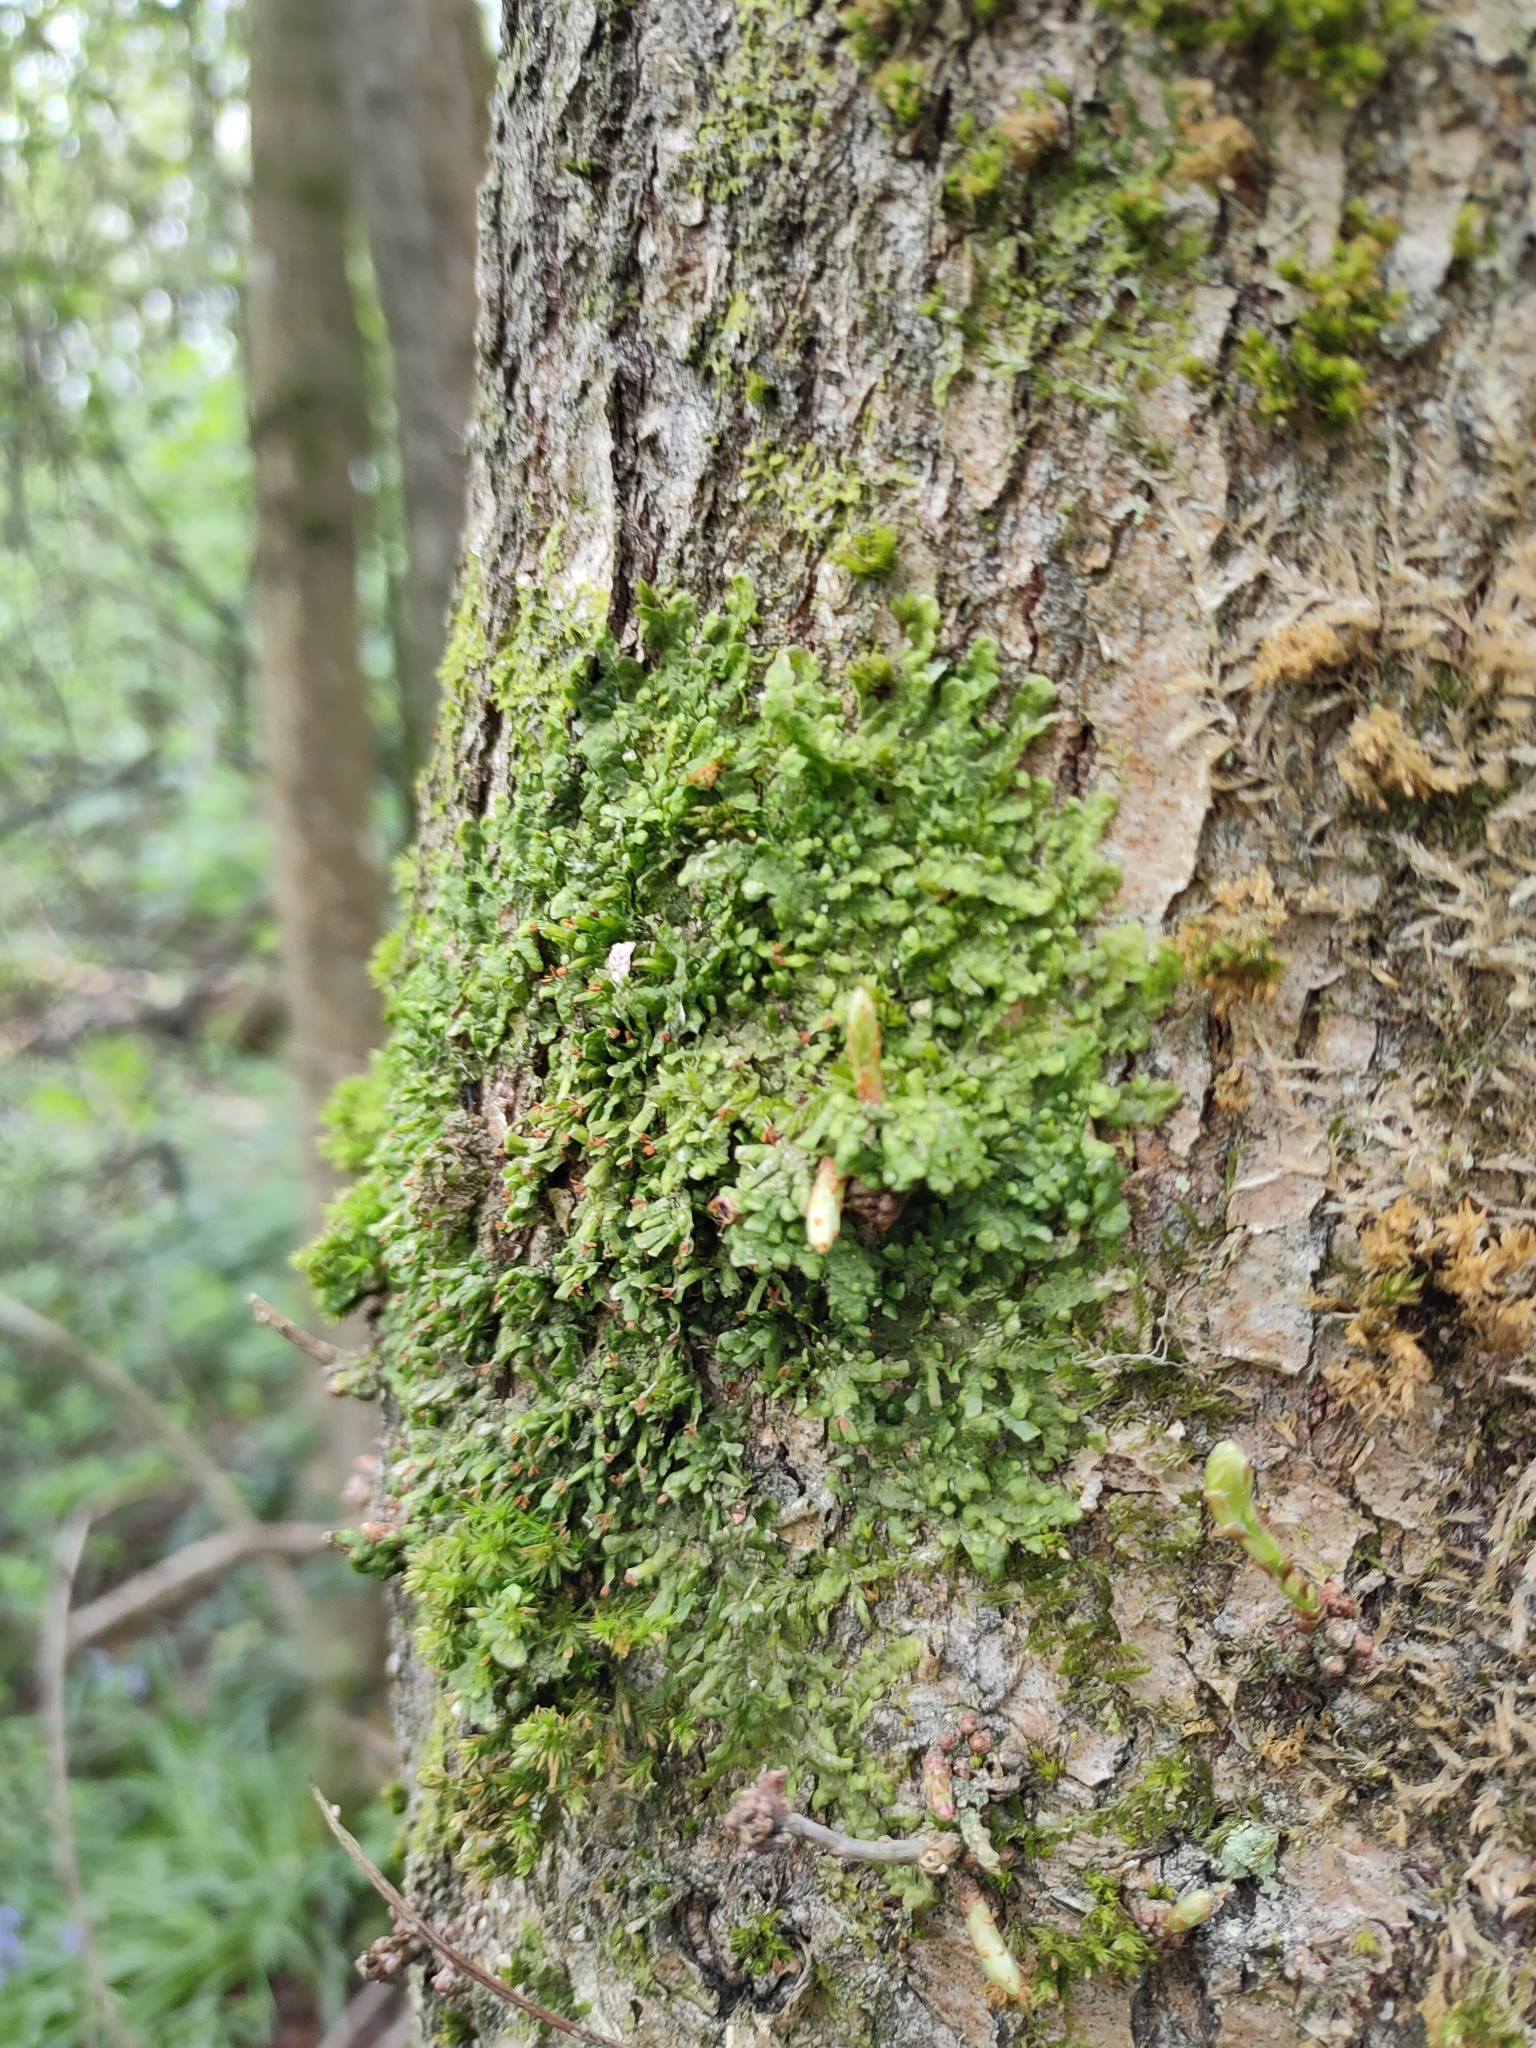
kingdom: Plantae
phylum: Marchantiophyta
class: Jungermanniopsida
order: Porellales
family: Radulaceae
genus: Radula
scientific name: Radula complanata
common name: Flat-leaved scalewort
